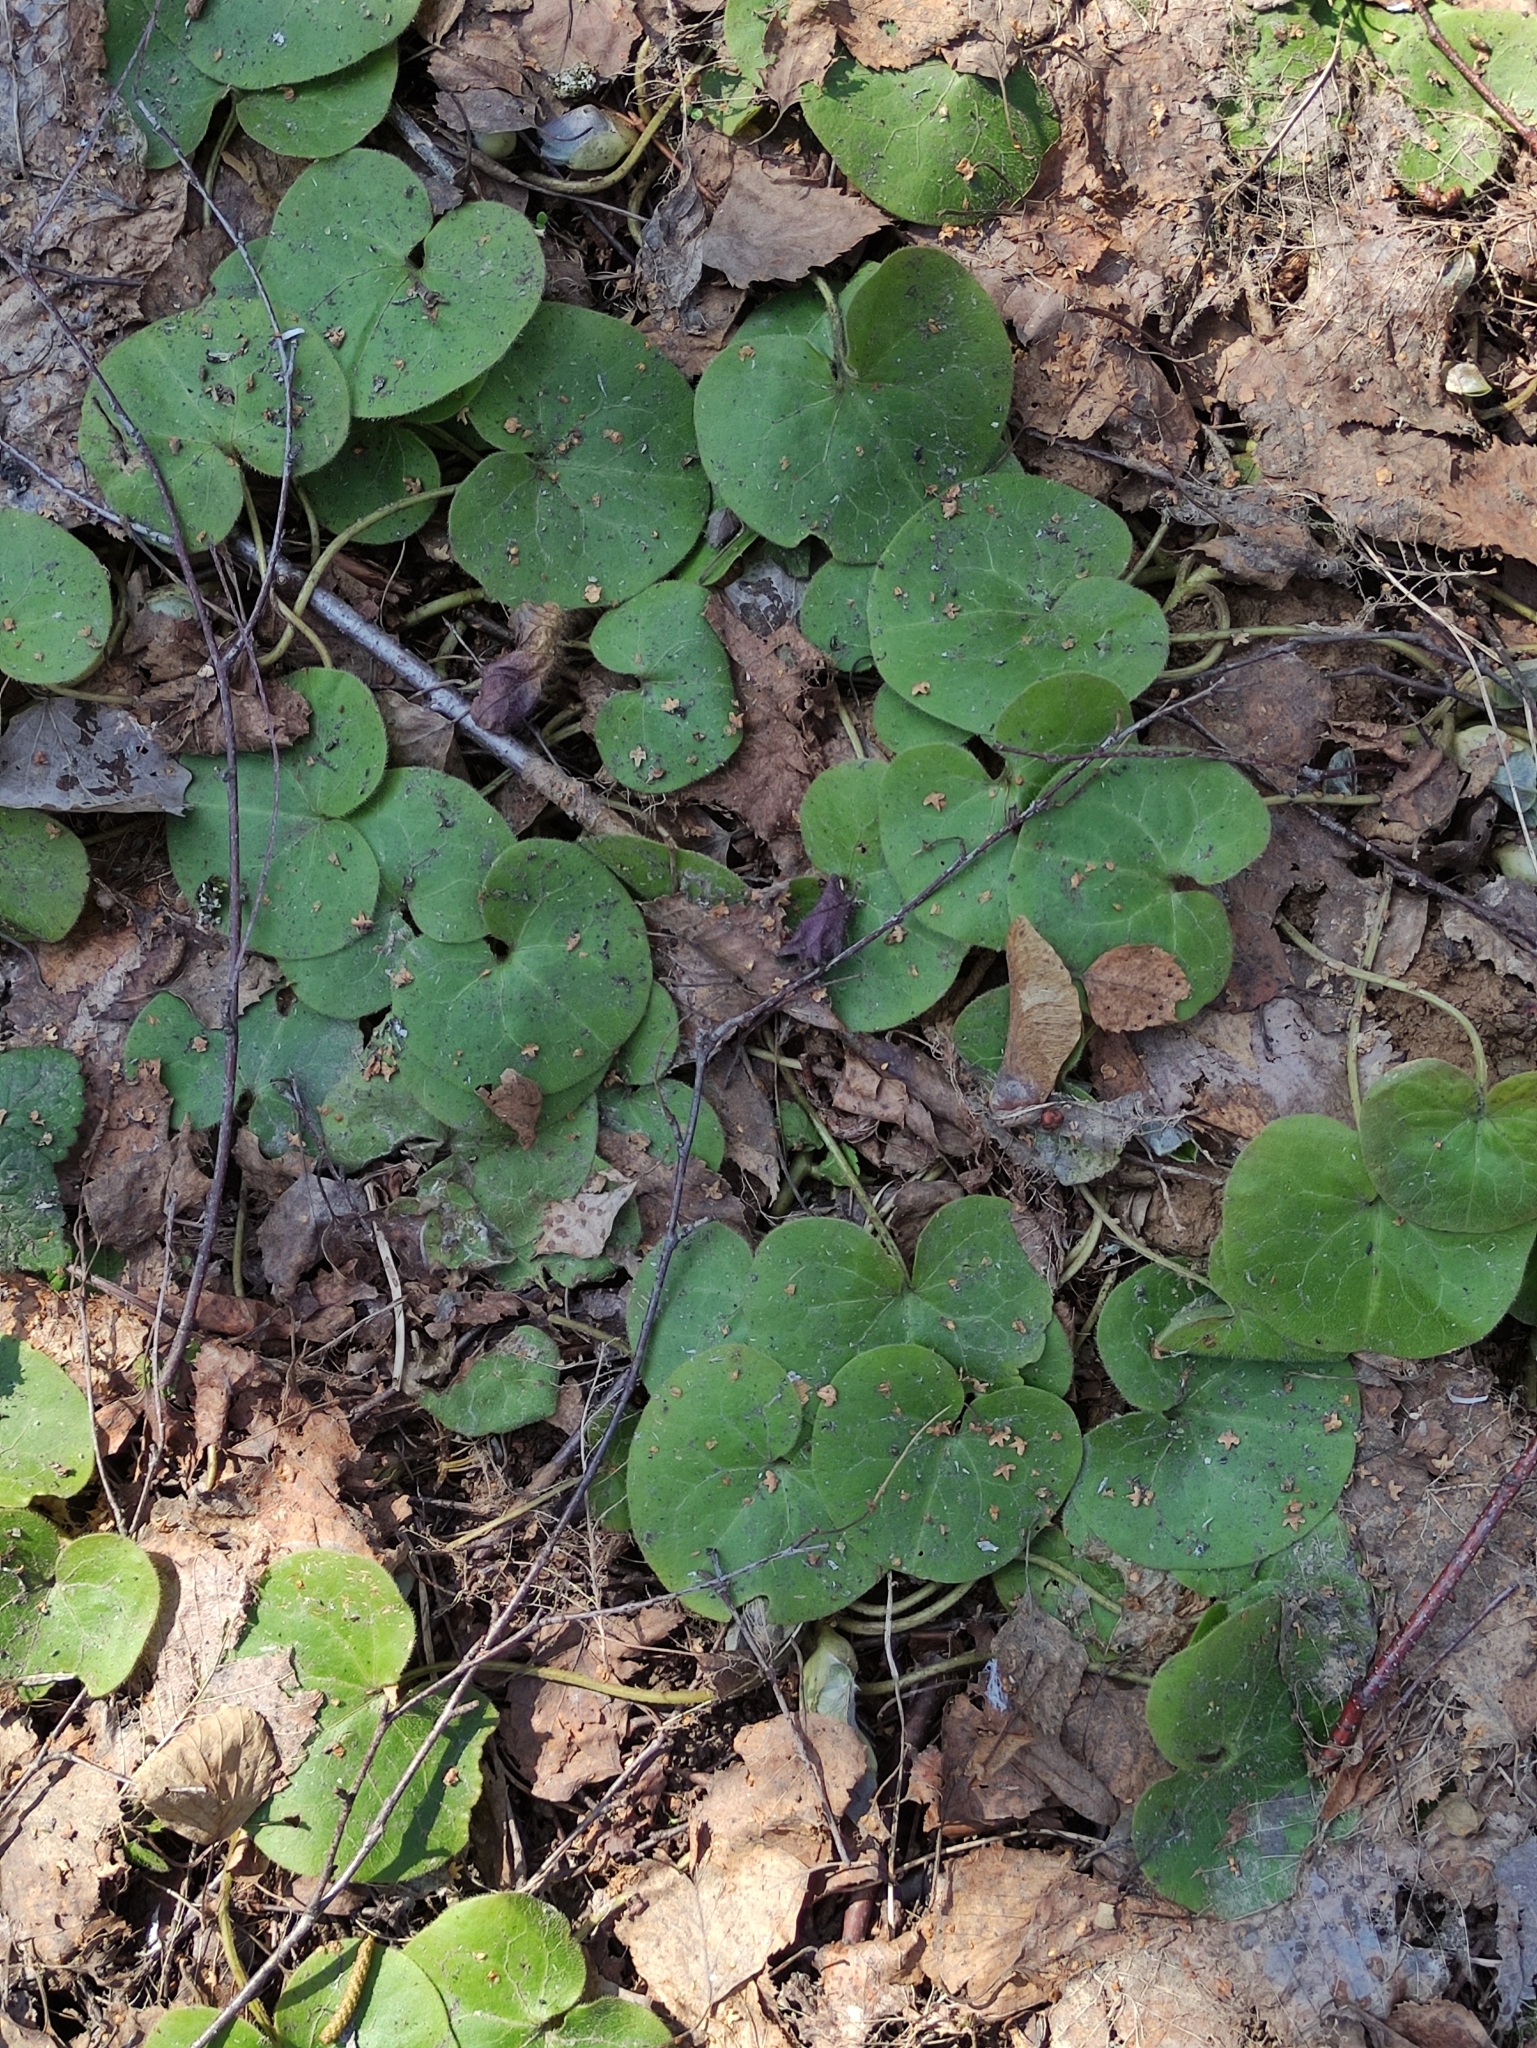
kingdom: Plantae
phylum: Tracheophyta
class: Magnoliopsida
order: Piperales
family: Aristolochiaceae
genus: Asarum
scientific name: Asarum europaeum
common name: Asarabacca
